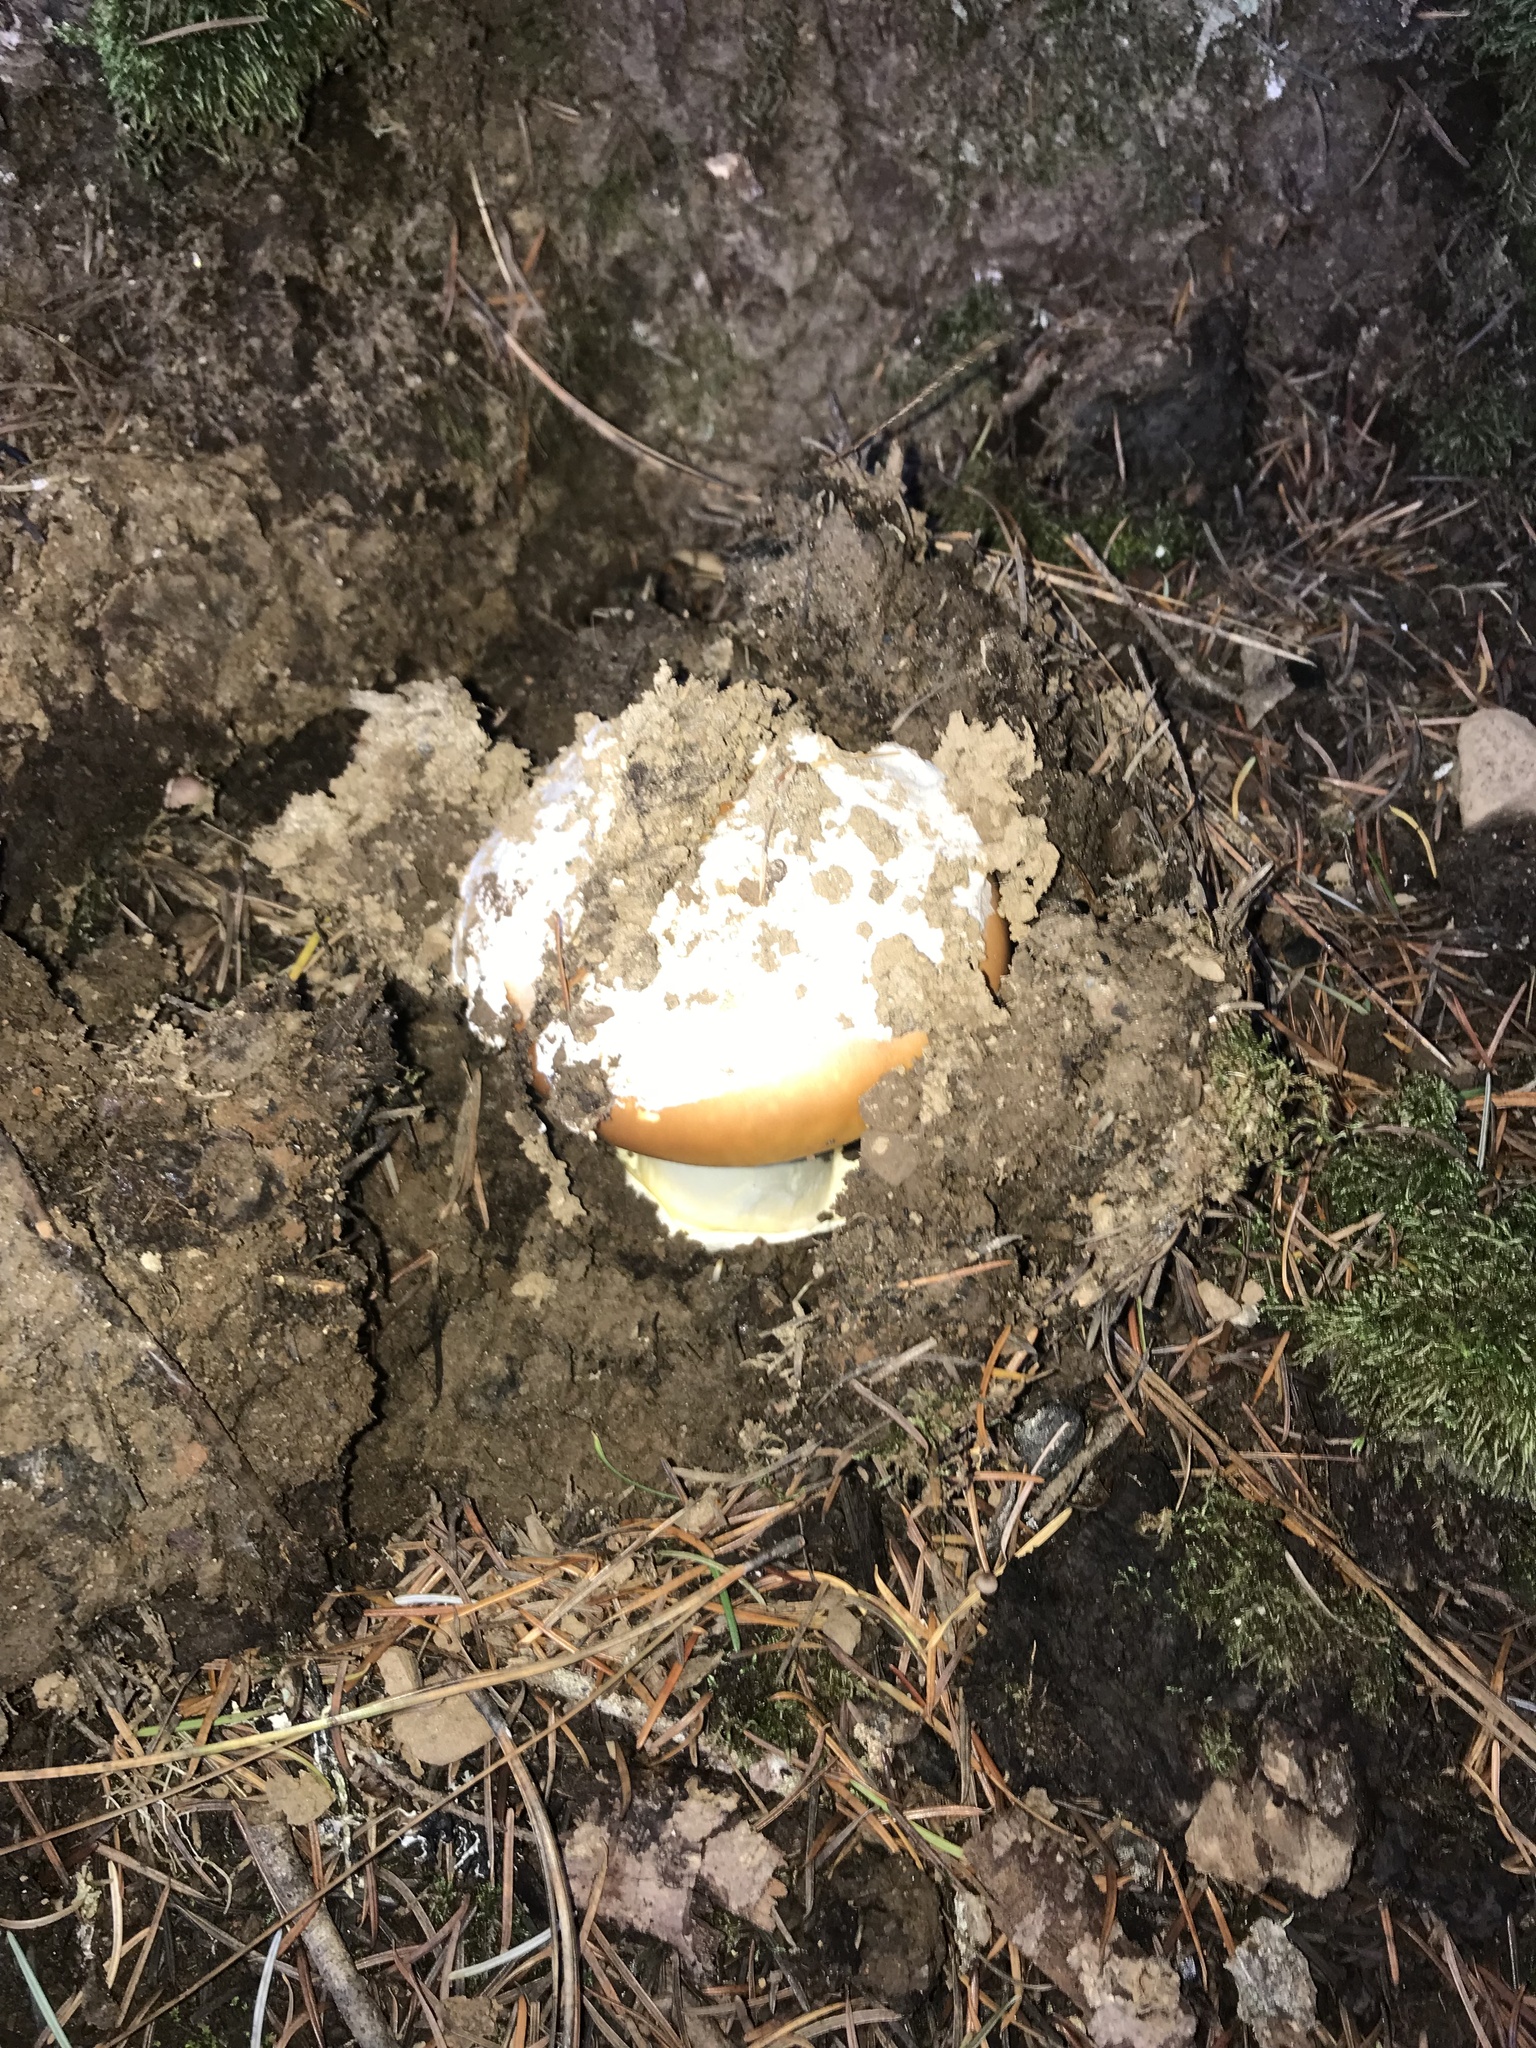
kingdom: Fungi
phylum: Basidiomycota
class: Agaricomycetes
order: Agaricales
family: Amanitaceae
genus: Amanita
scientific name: Amanita calyptroderma
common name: Coccora
